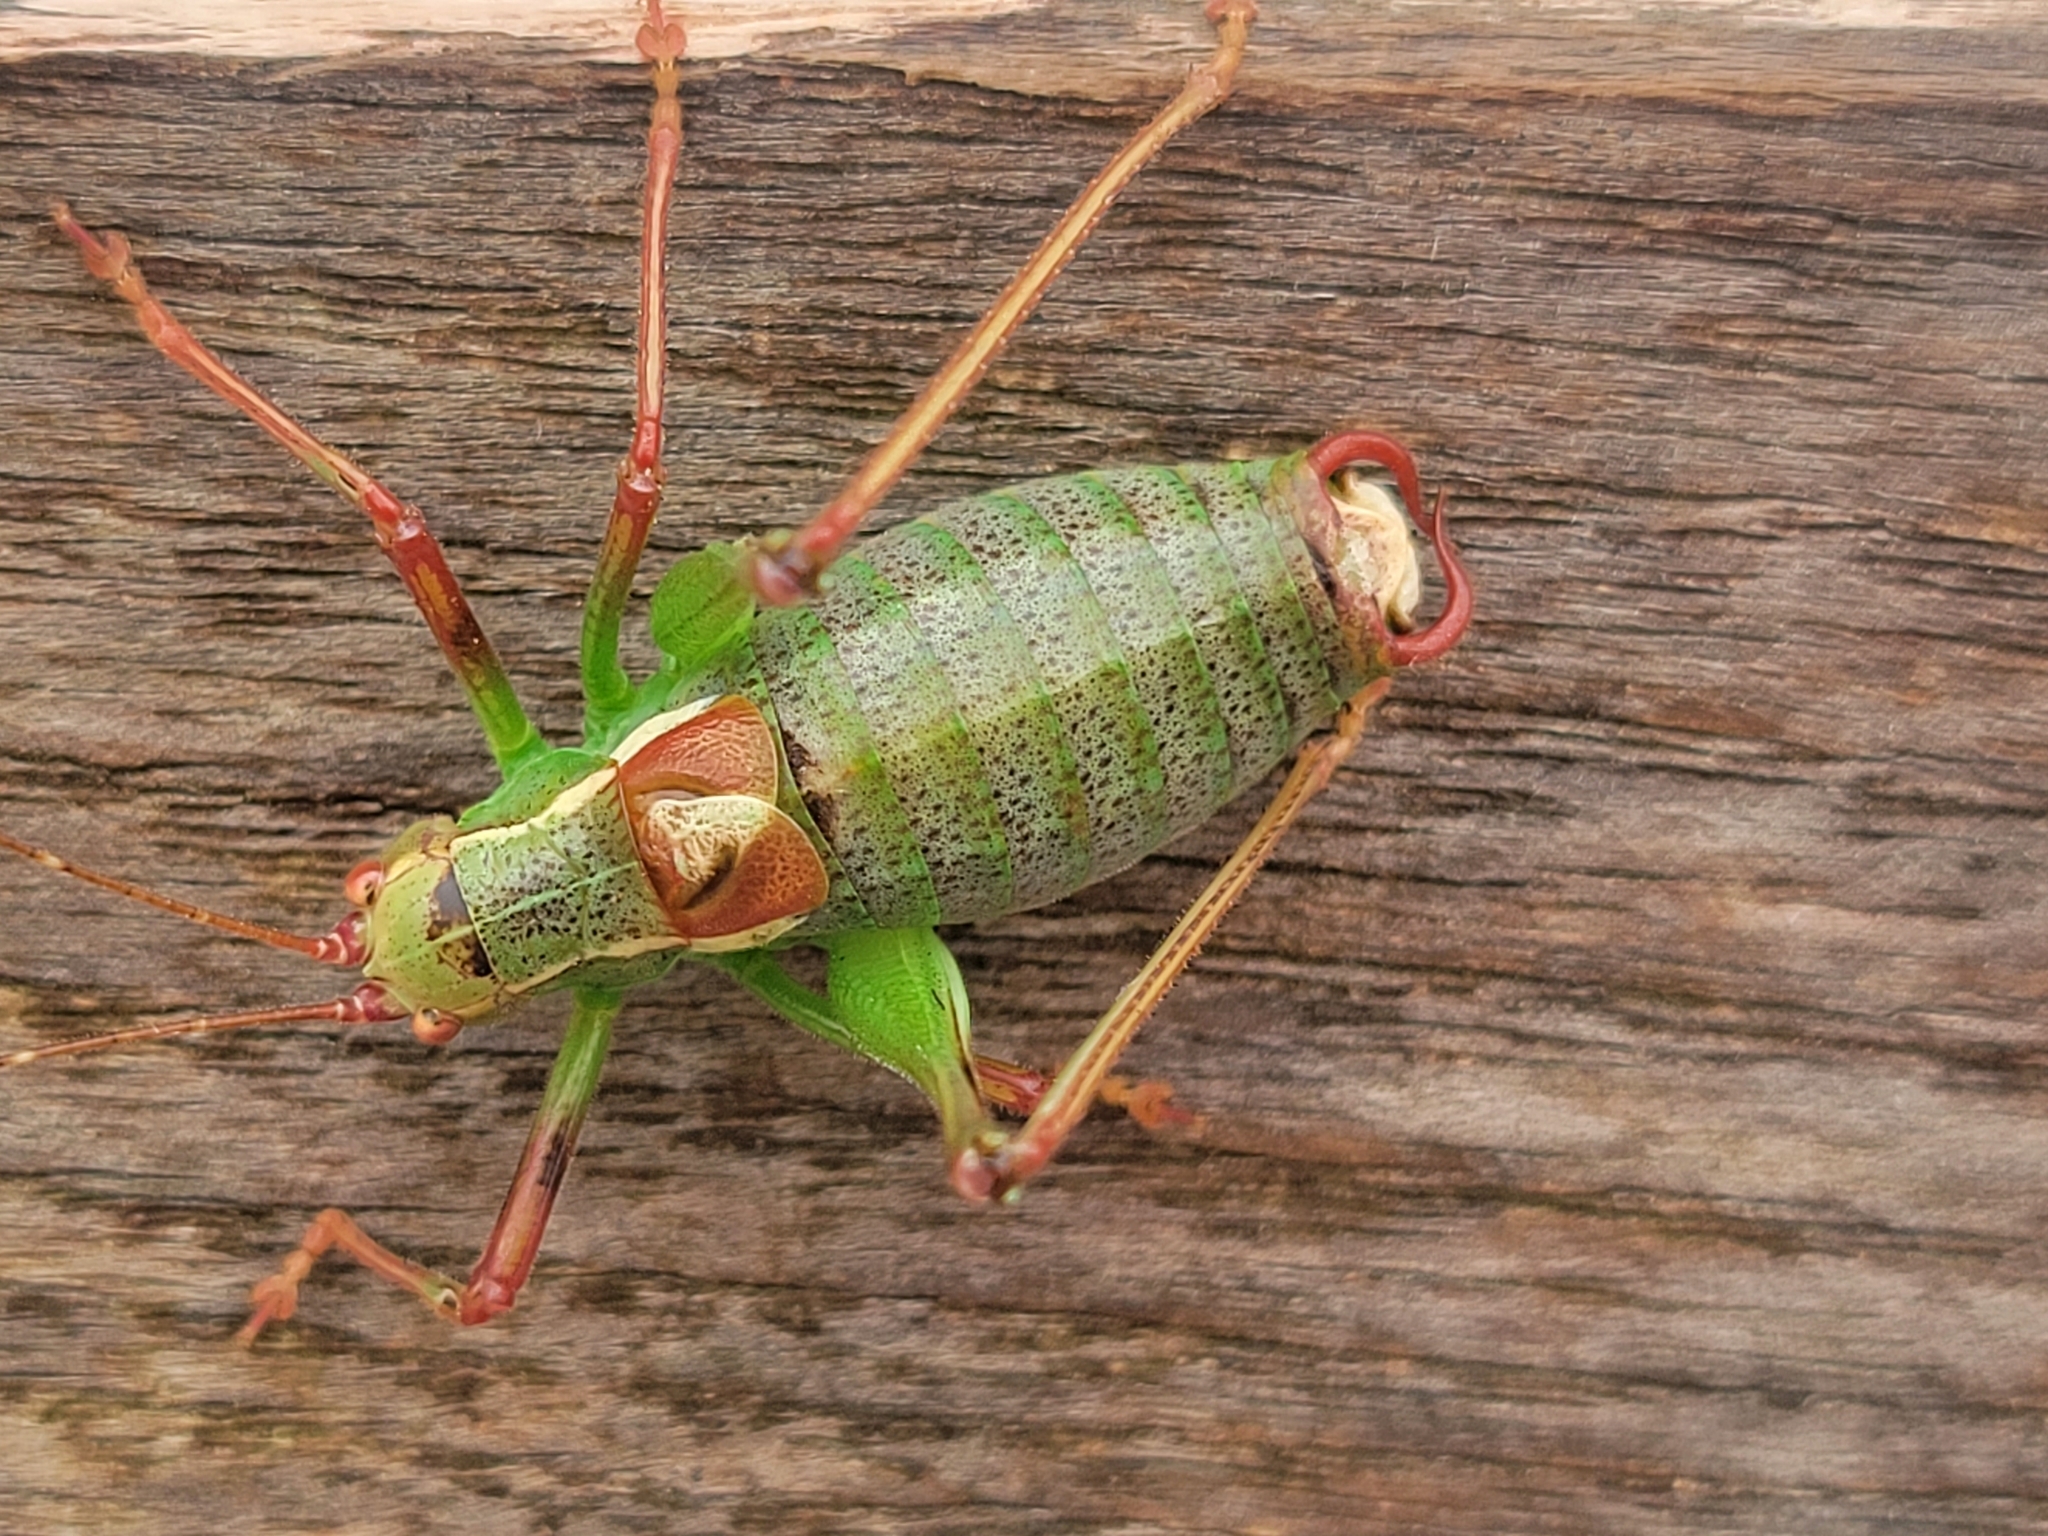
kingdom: Animalia
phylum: Arthropoda
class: Insecta
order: Orthoptera
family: Tettigoniidae
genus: Barbitistes
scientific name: Barbitistes yersini
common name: Balkan saw bush-cricket
